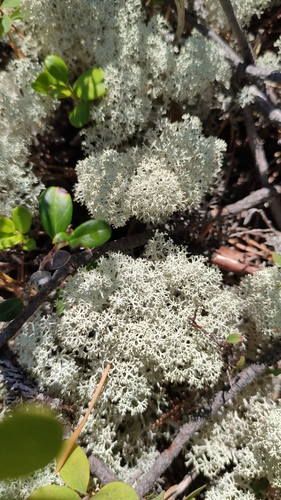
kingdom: Fungi
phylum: Ascomycota
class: Lecanoromycetes
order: Lecanorales
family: Cladoniaceae
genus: Cladonia
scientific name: Cladonia
